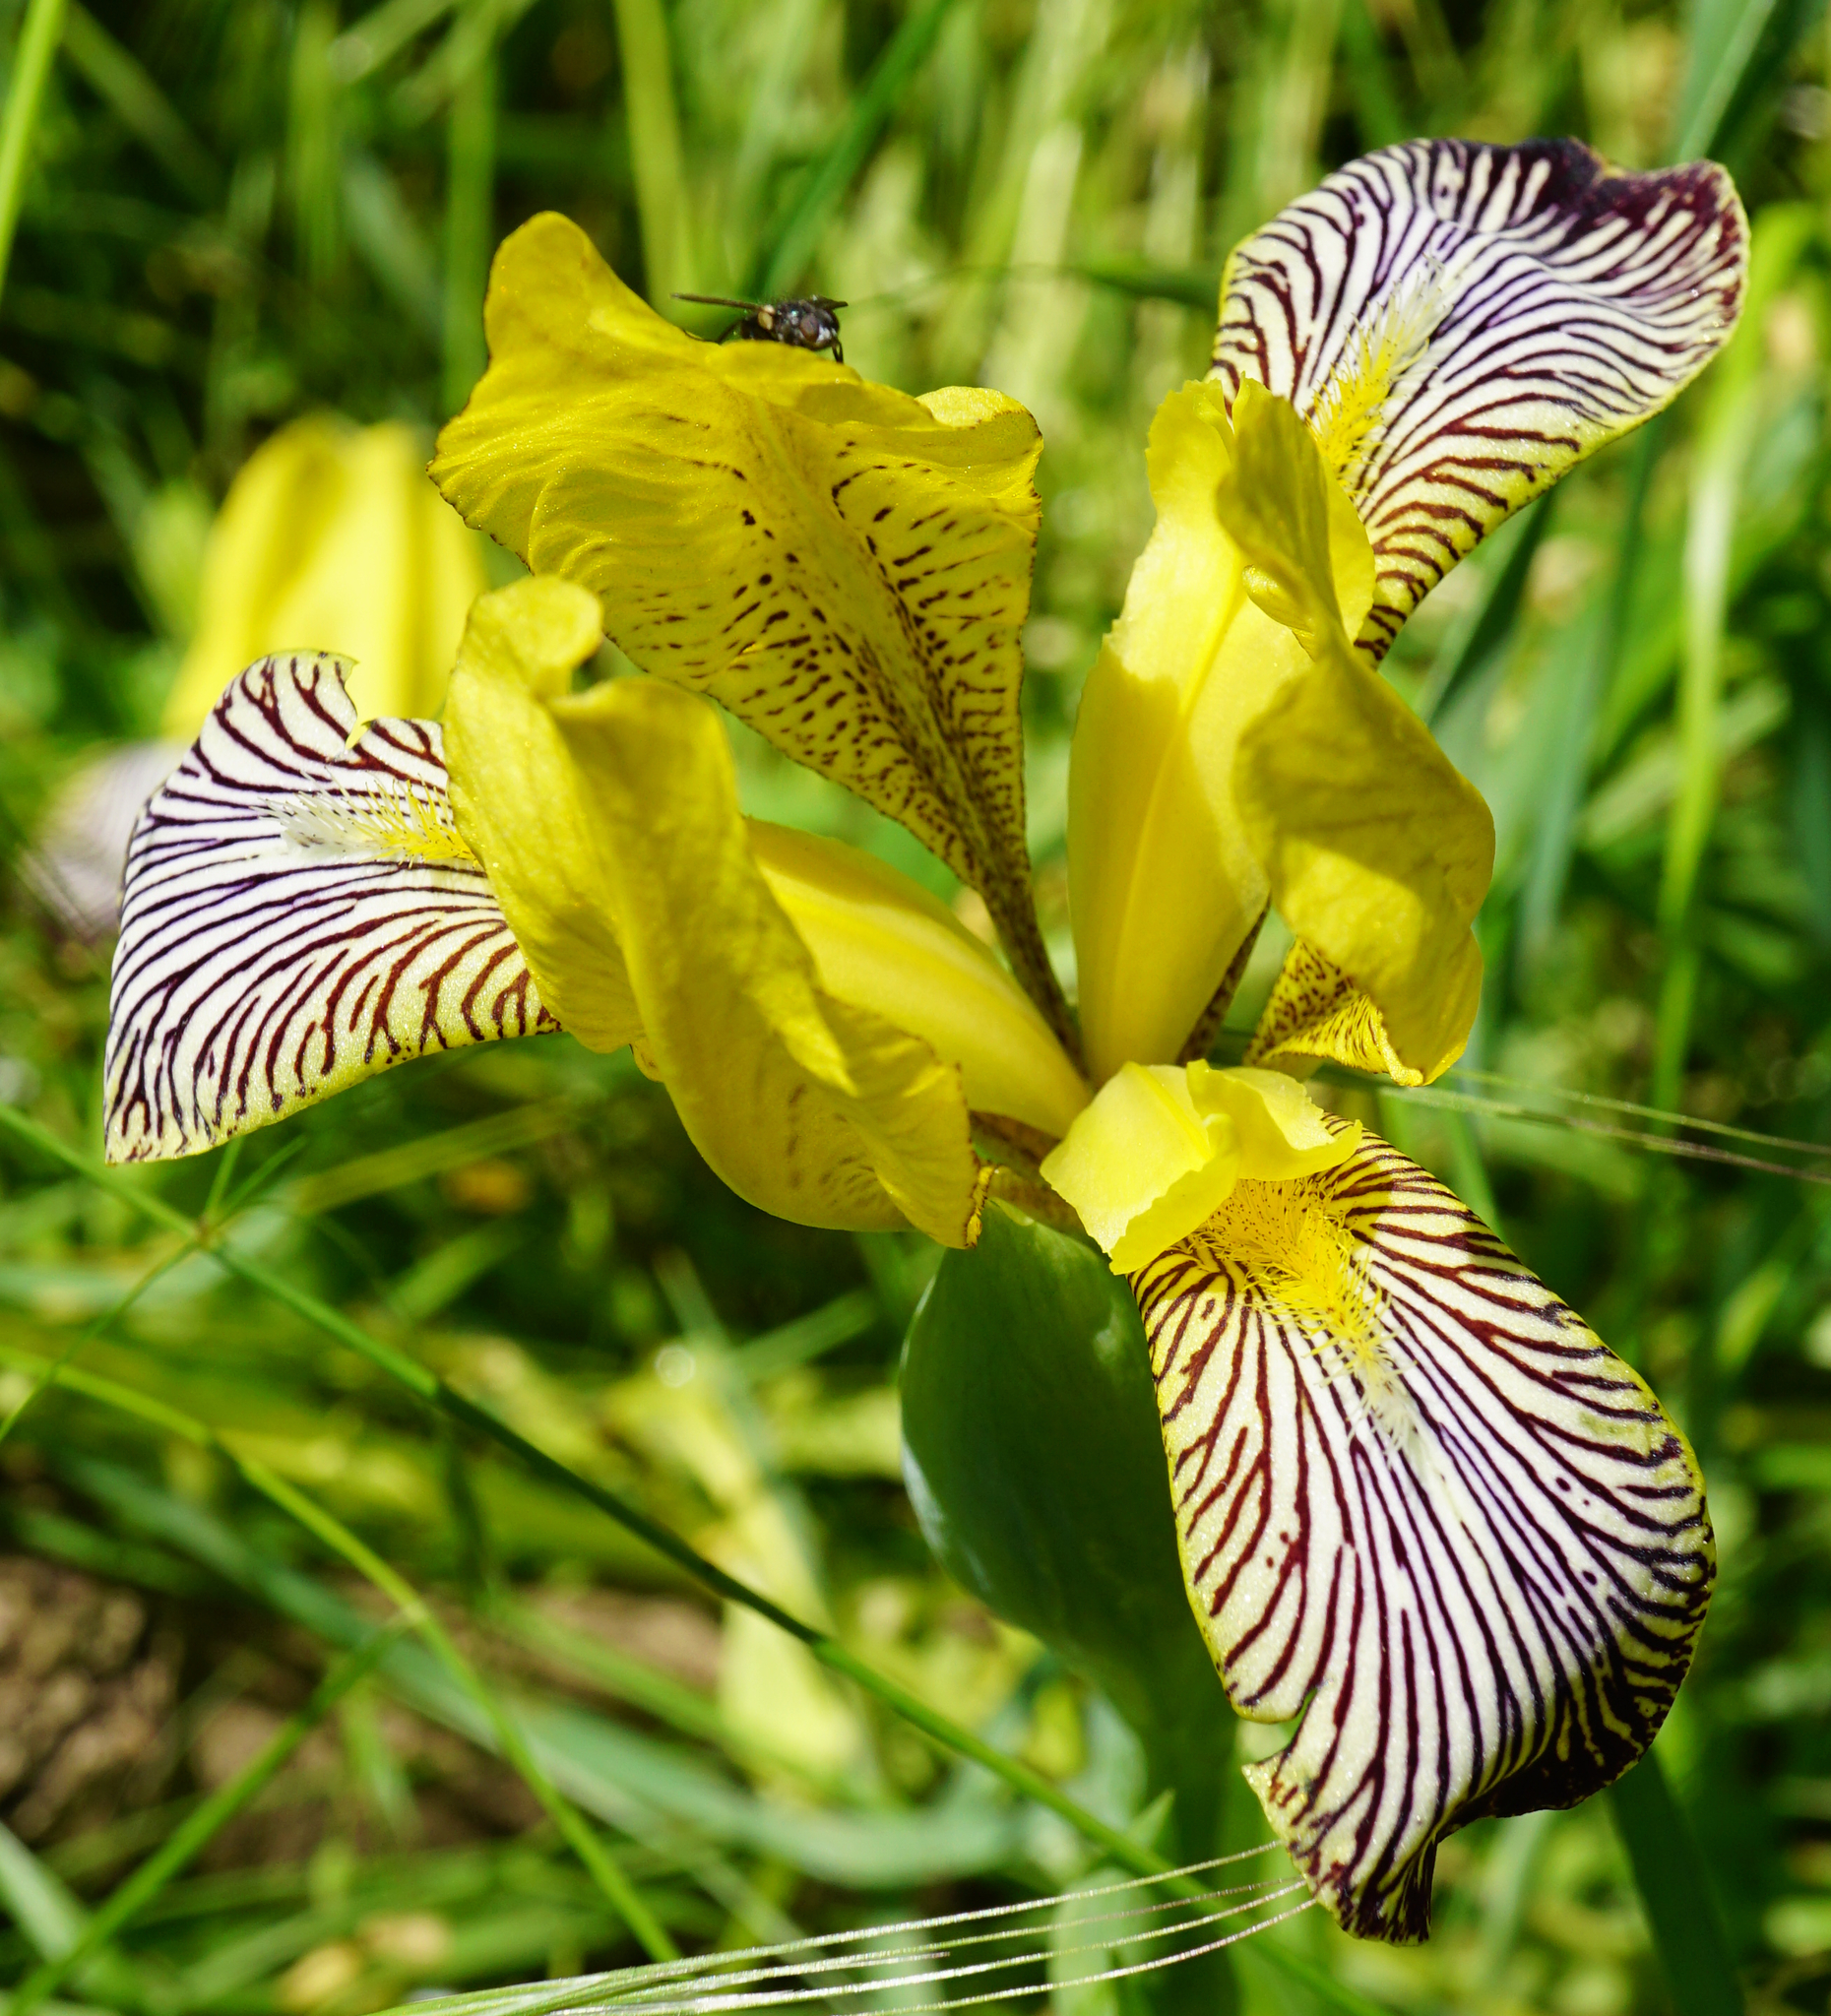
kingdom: Plantae
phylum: Tracheophyta
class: Liliopsida
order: Asparagales
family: Iridaceae
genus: Iris
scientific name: Iris variegata
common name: Hungarian iris
